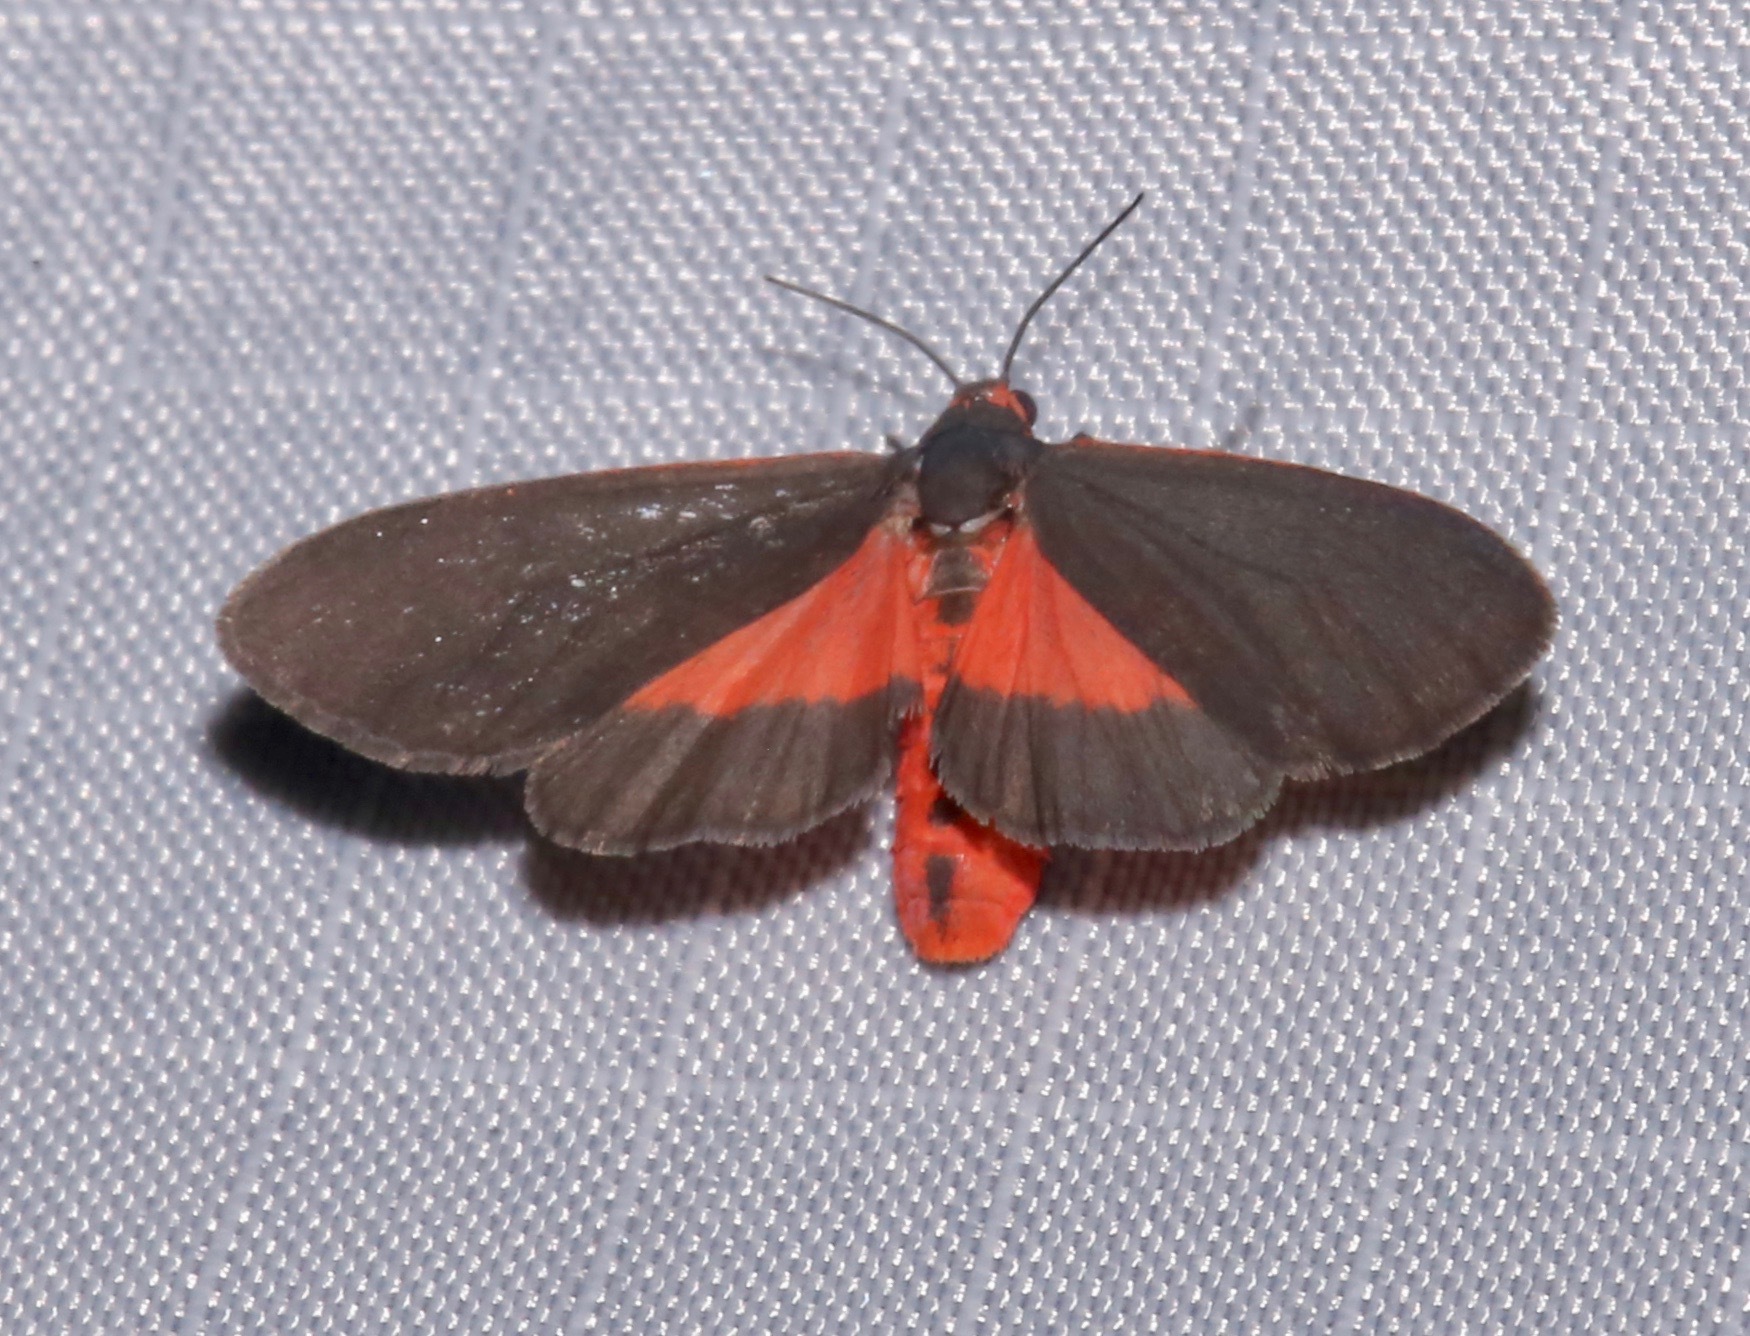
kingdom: Animalia
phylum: Arthropoda
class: Insecta
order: Lepidoptera
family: Erebidae
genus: Virbia
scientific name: Virbia laeta
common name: Joyful holomelina moth
